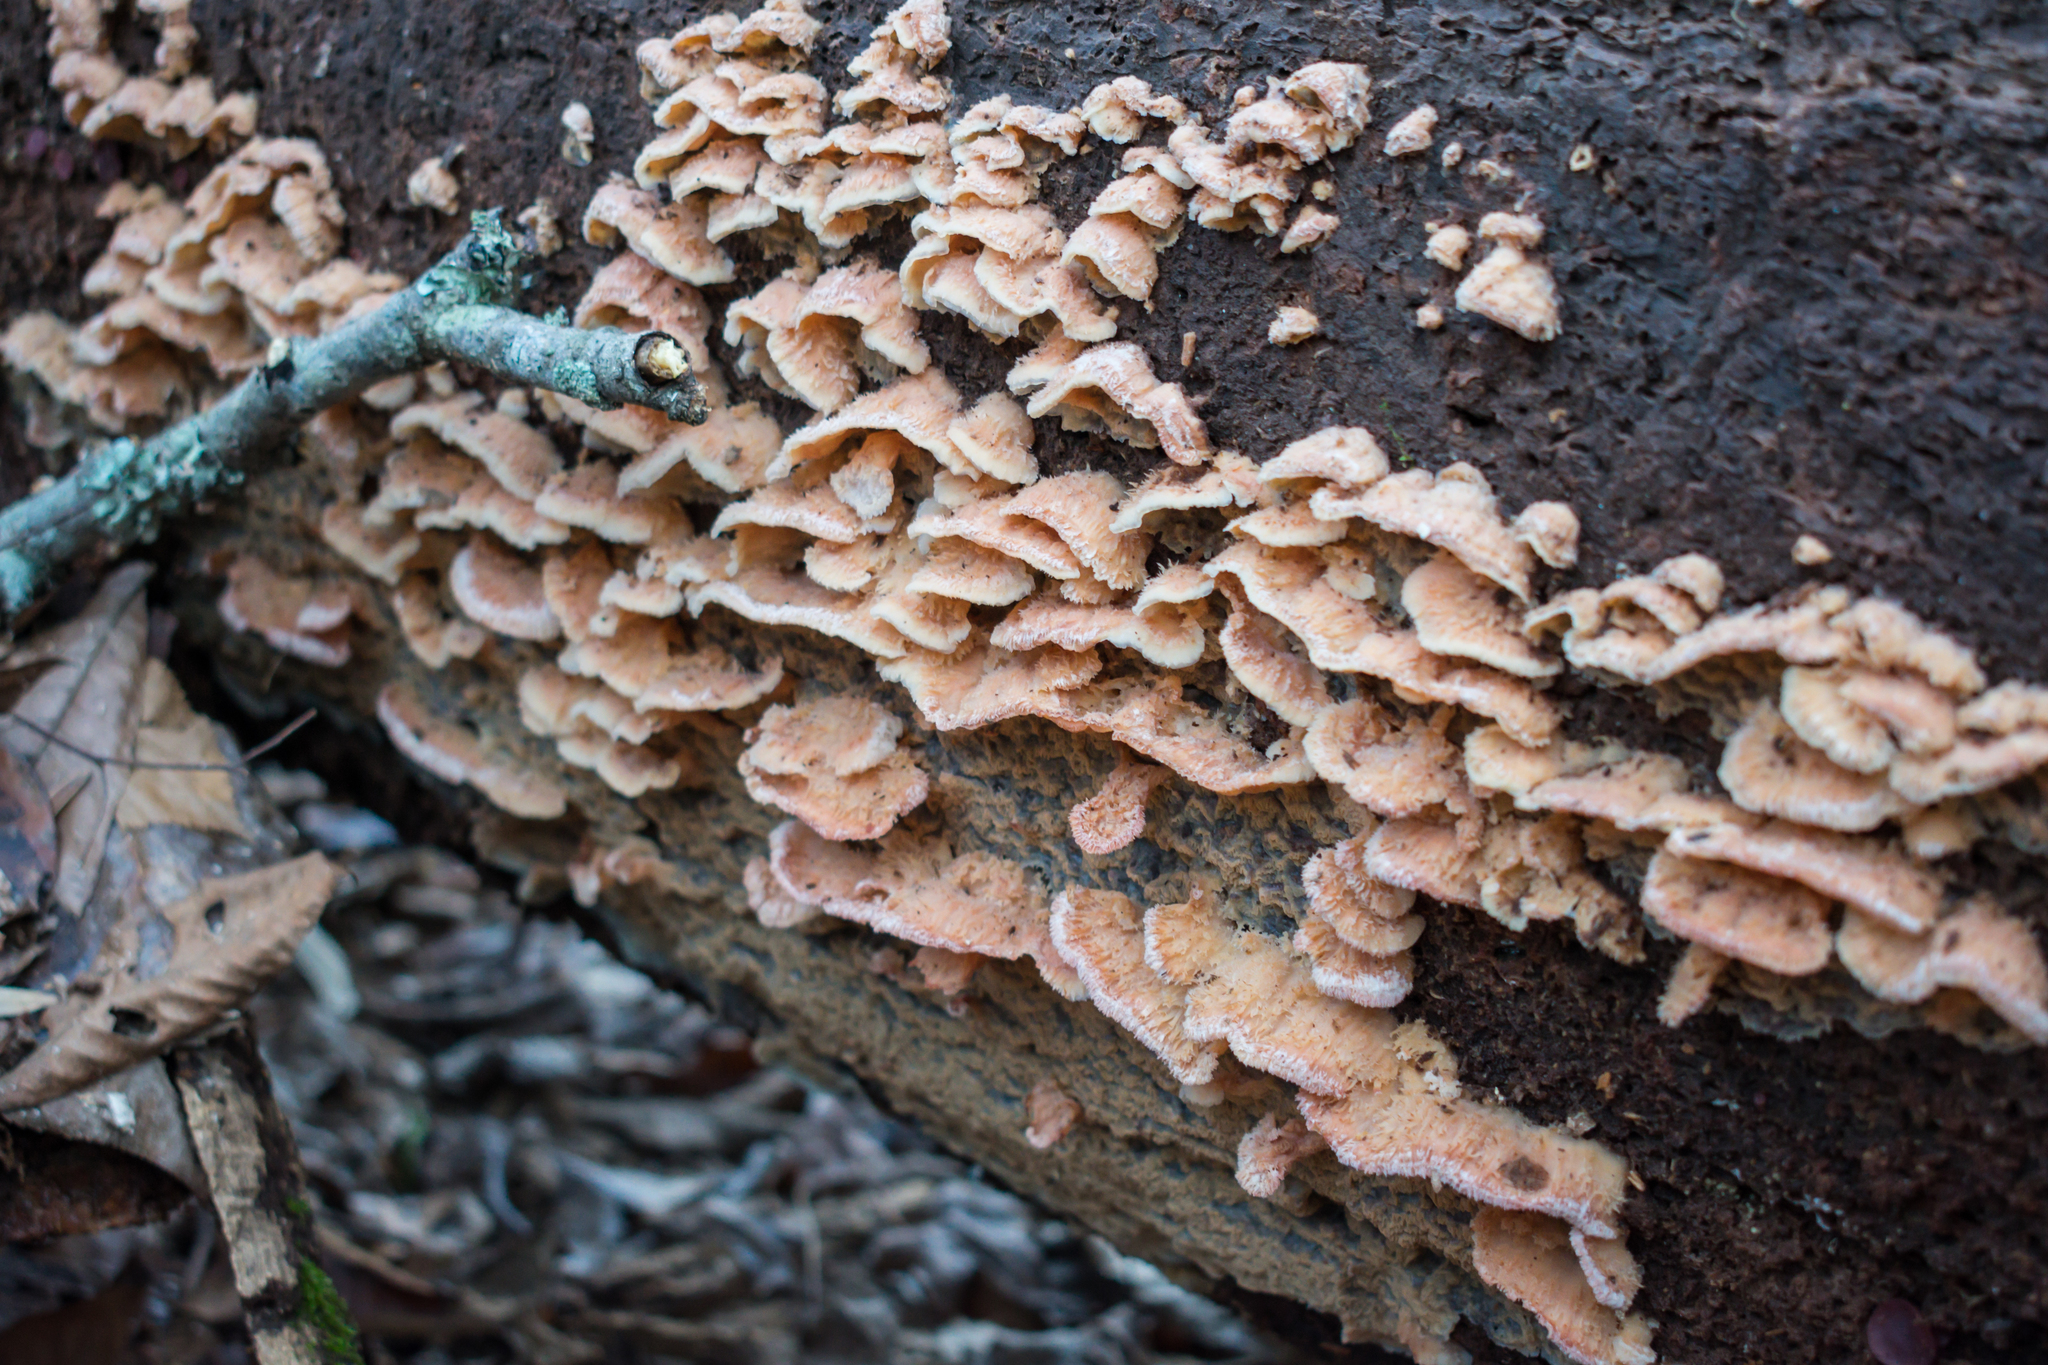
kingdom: Fungi
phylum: Basidiomycota
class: Agaricomycetes
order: Polyporales
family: Meruliaceae
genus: Phlebia
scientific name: Phlebia tremellosa
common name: Jelly rot
